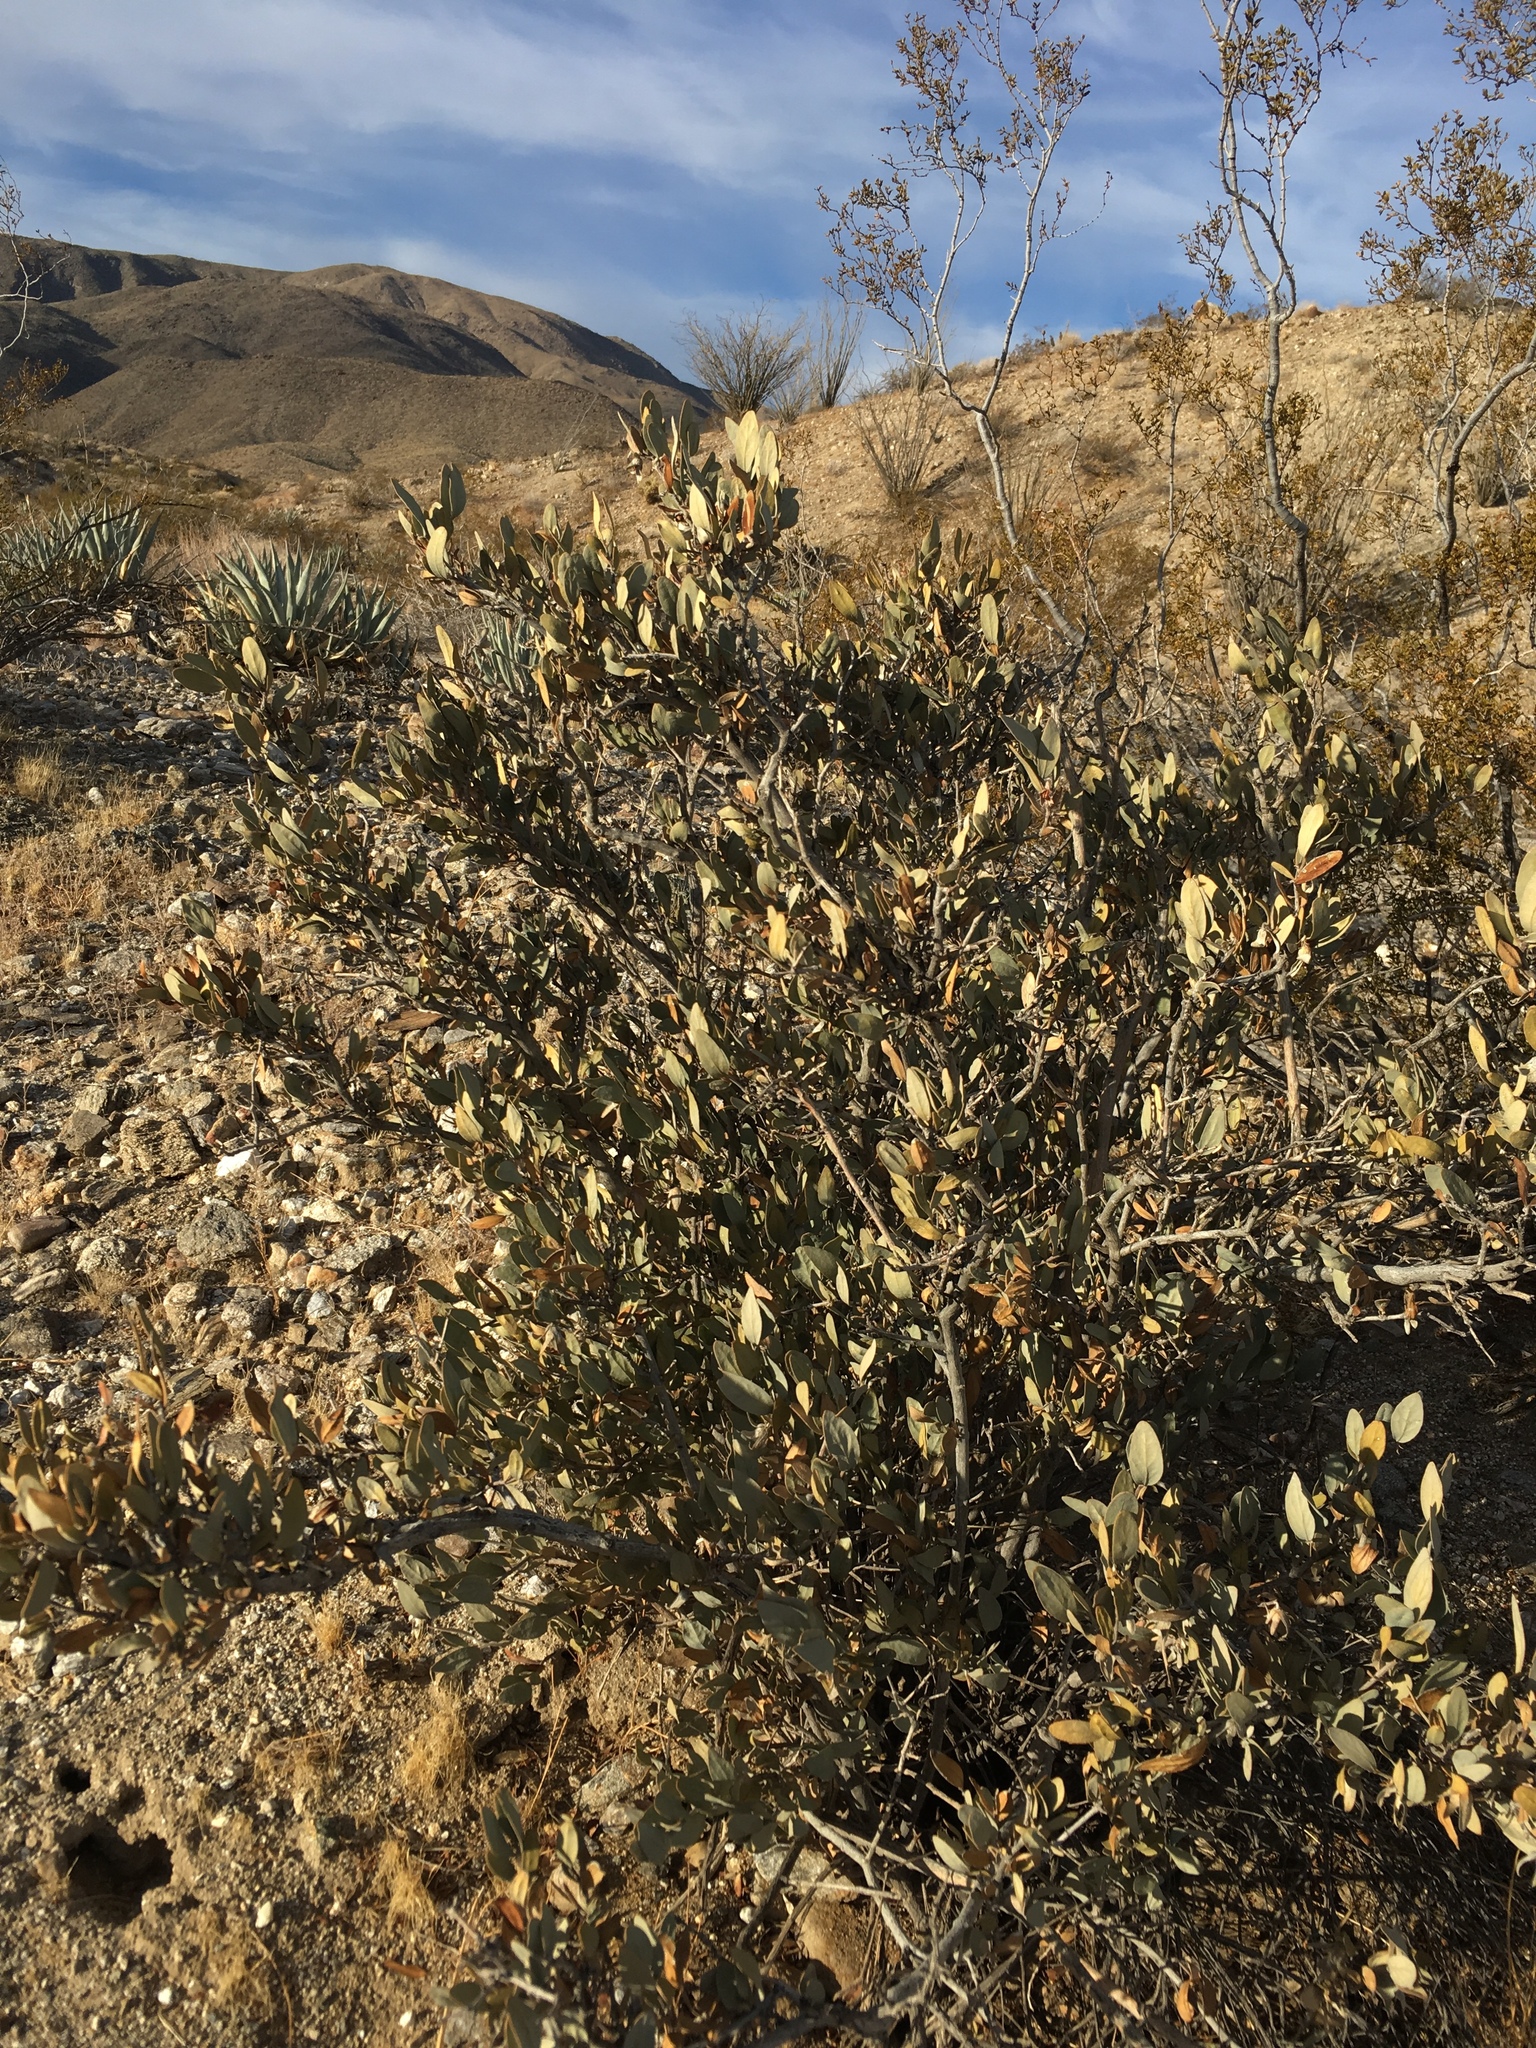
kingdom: Plantae
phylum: Tracheophyta
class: Magnoliopsida
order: Caryophyllales
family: Simmondsiaceae
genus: Simmondsia
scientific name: Simmondsia chinensis
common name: Jojoba
